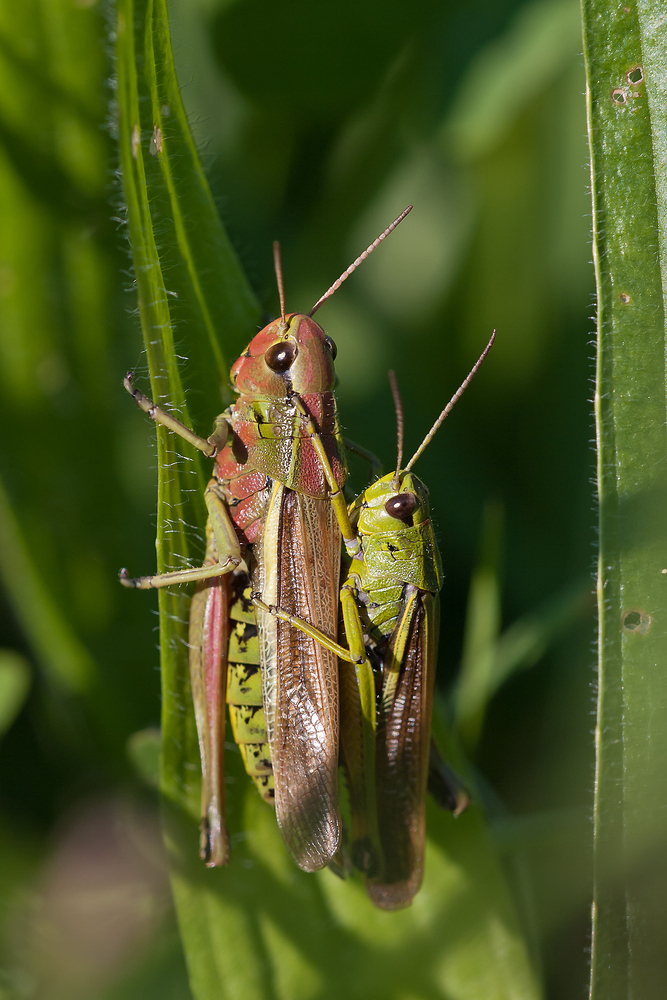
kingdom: Animalia
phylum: Arthropoda
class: Insecta
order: Orthoptera
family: Acrididae
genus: Stethophyma
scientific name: Stethophyma grossum
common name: Large marsh grasshopper
